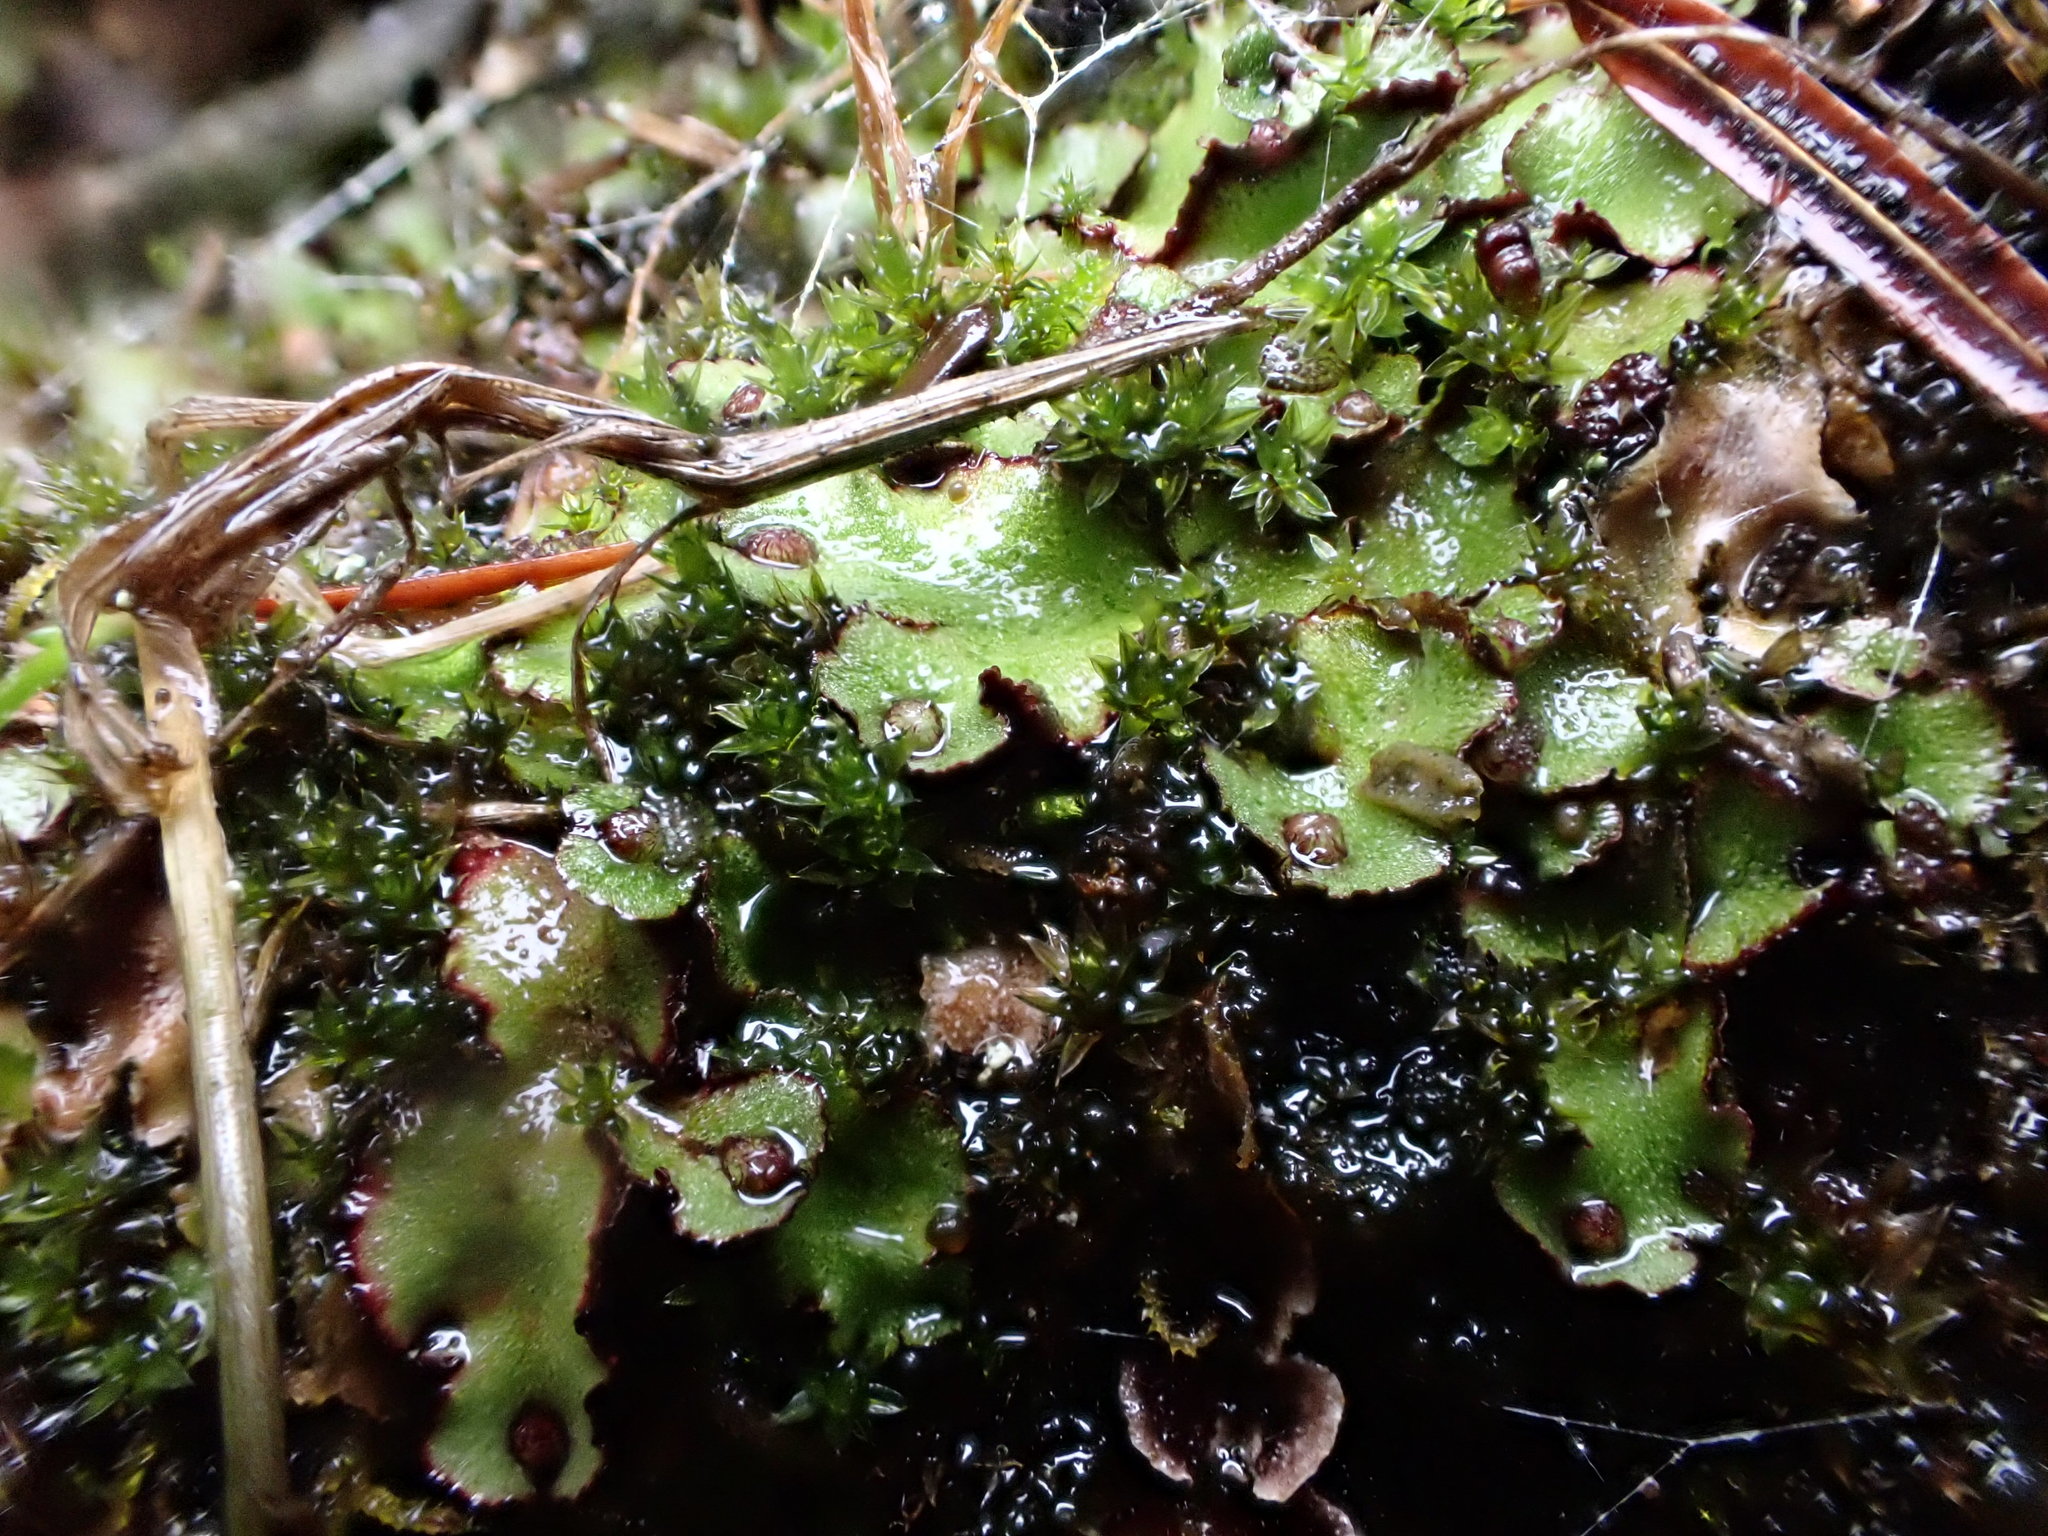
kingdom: Plantae
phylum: Marchantiophyta
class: Marchantiopsida
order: Marchantiales
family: Aytoniaceae
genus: Reboulia
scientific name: Reboulia hemisphaerica
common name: Purple-margined liverwort
